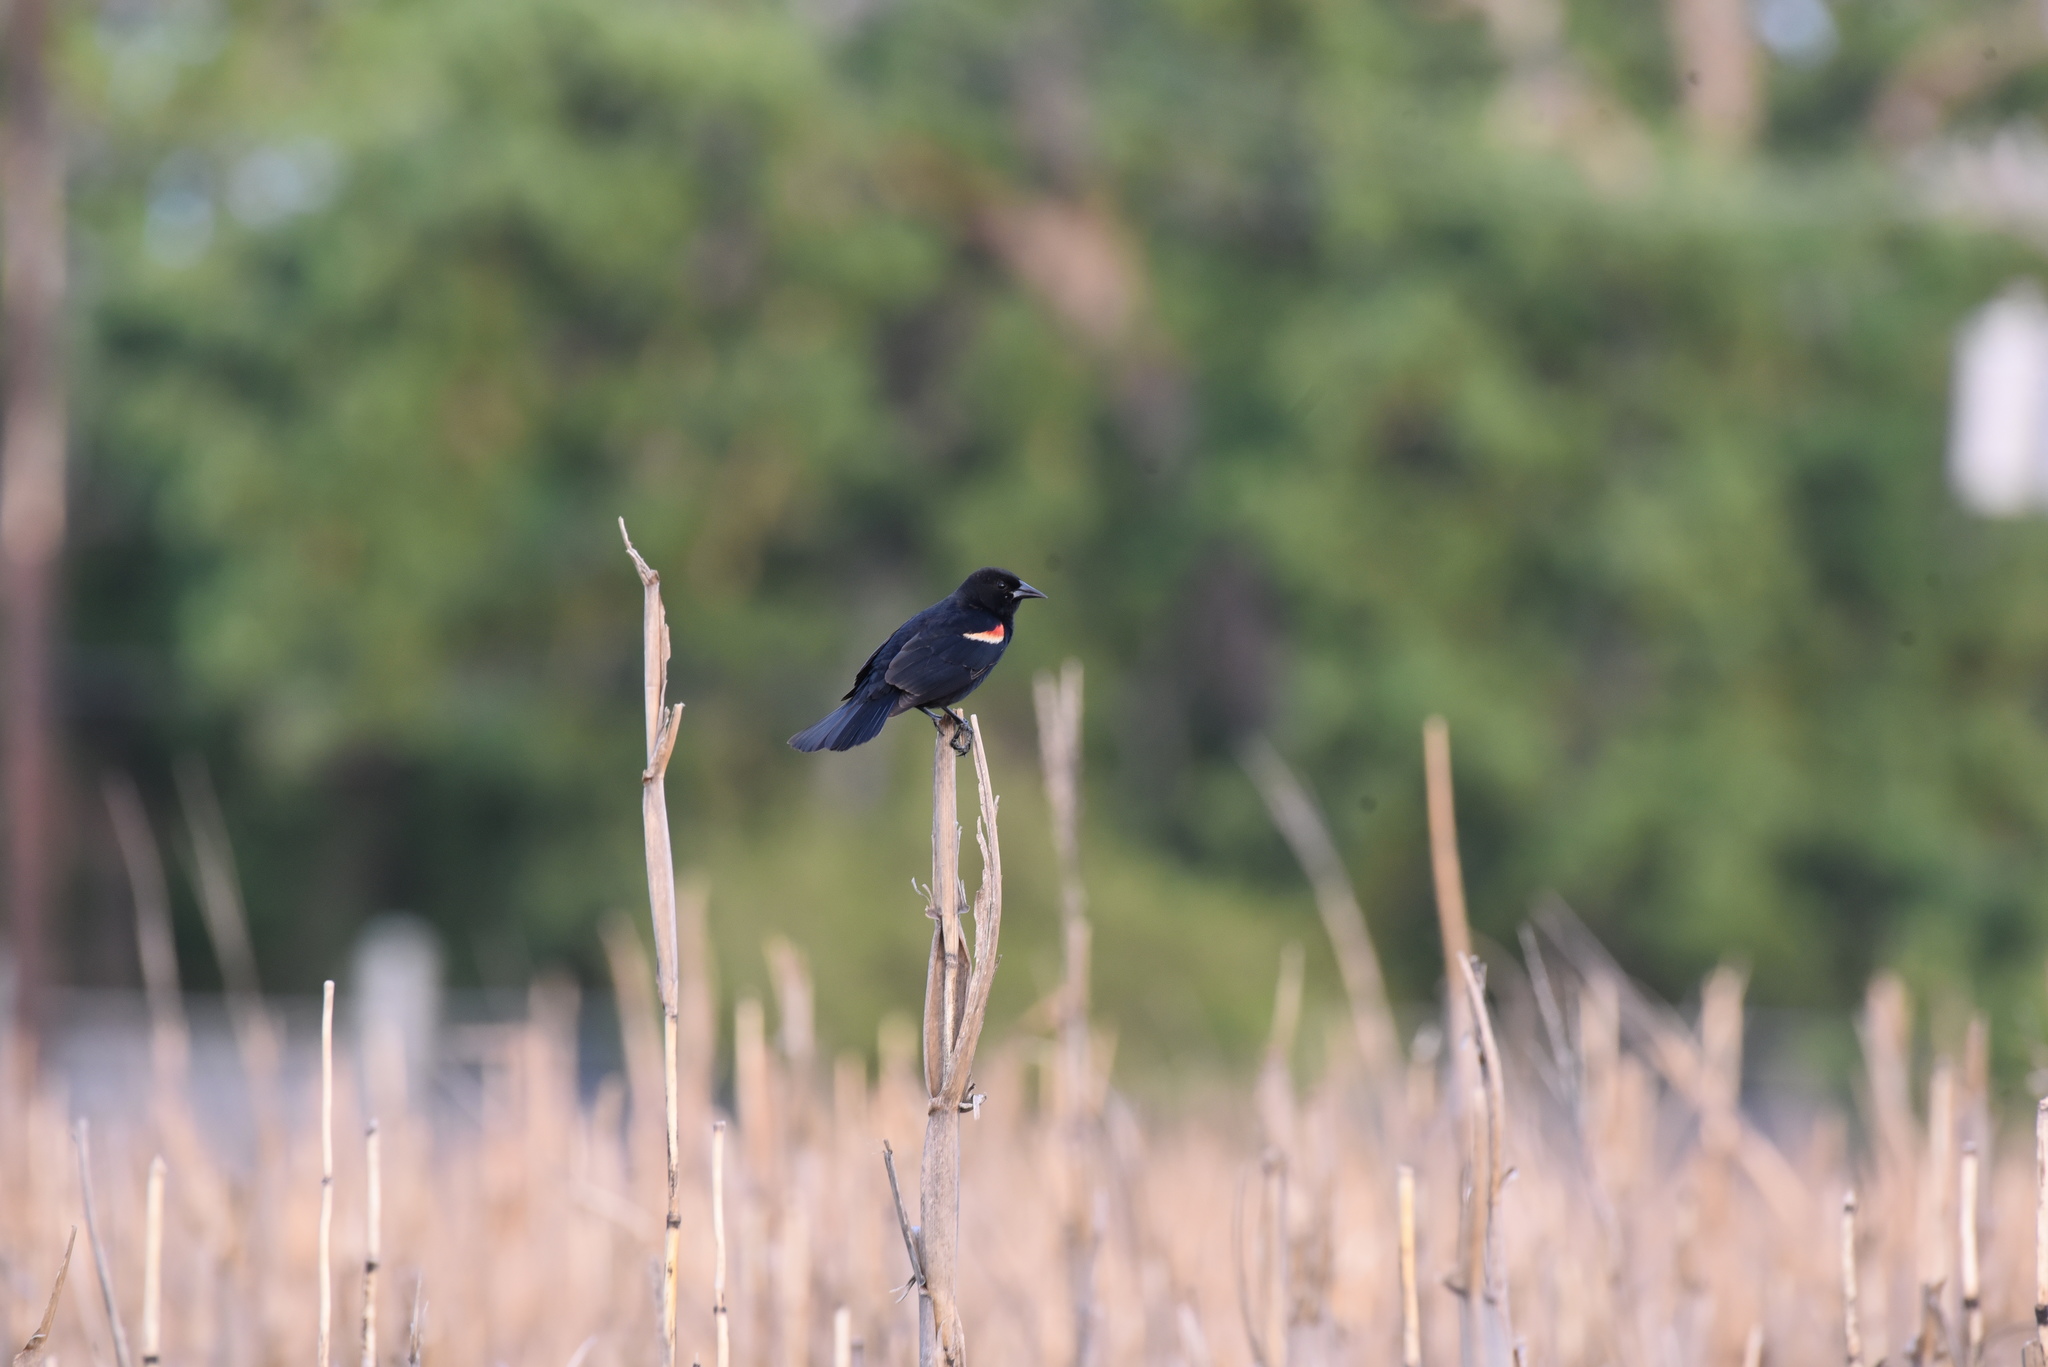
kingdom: Animalia
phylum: Chordata
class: Aves
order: Passeriformes
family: Icteridae
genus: Agelaius
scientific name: Agelaius phoeniceus
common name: Red-winged blackbird
